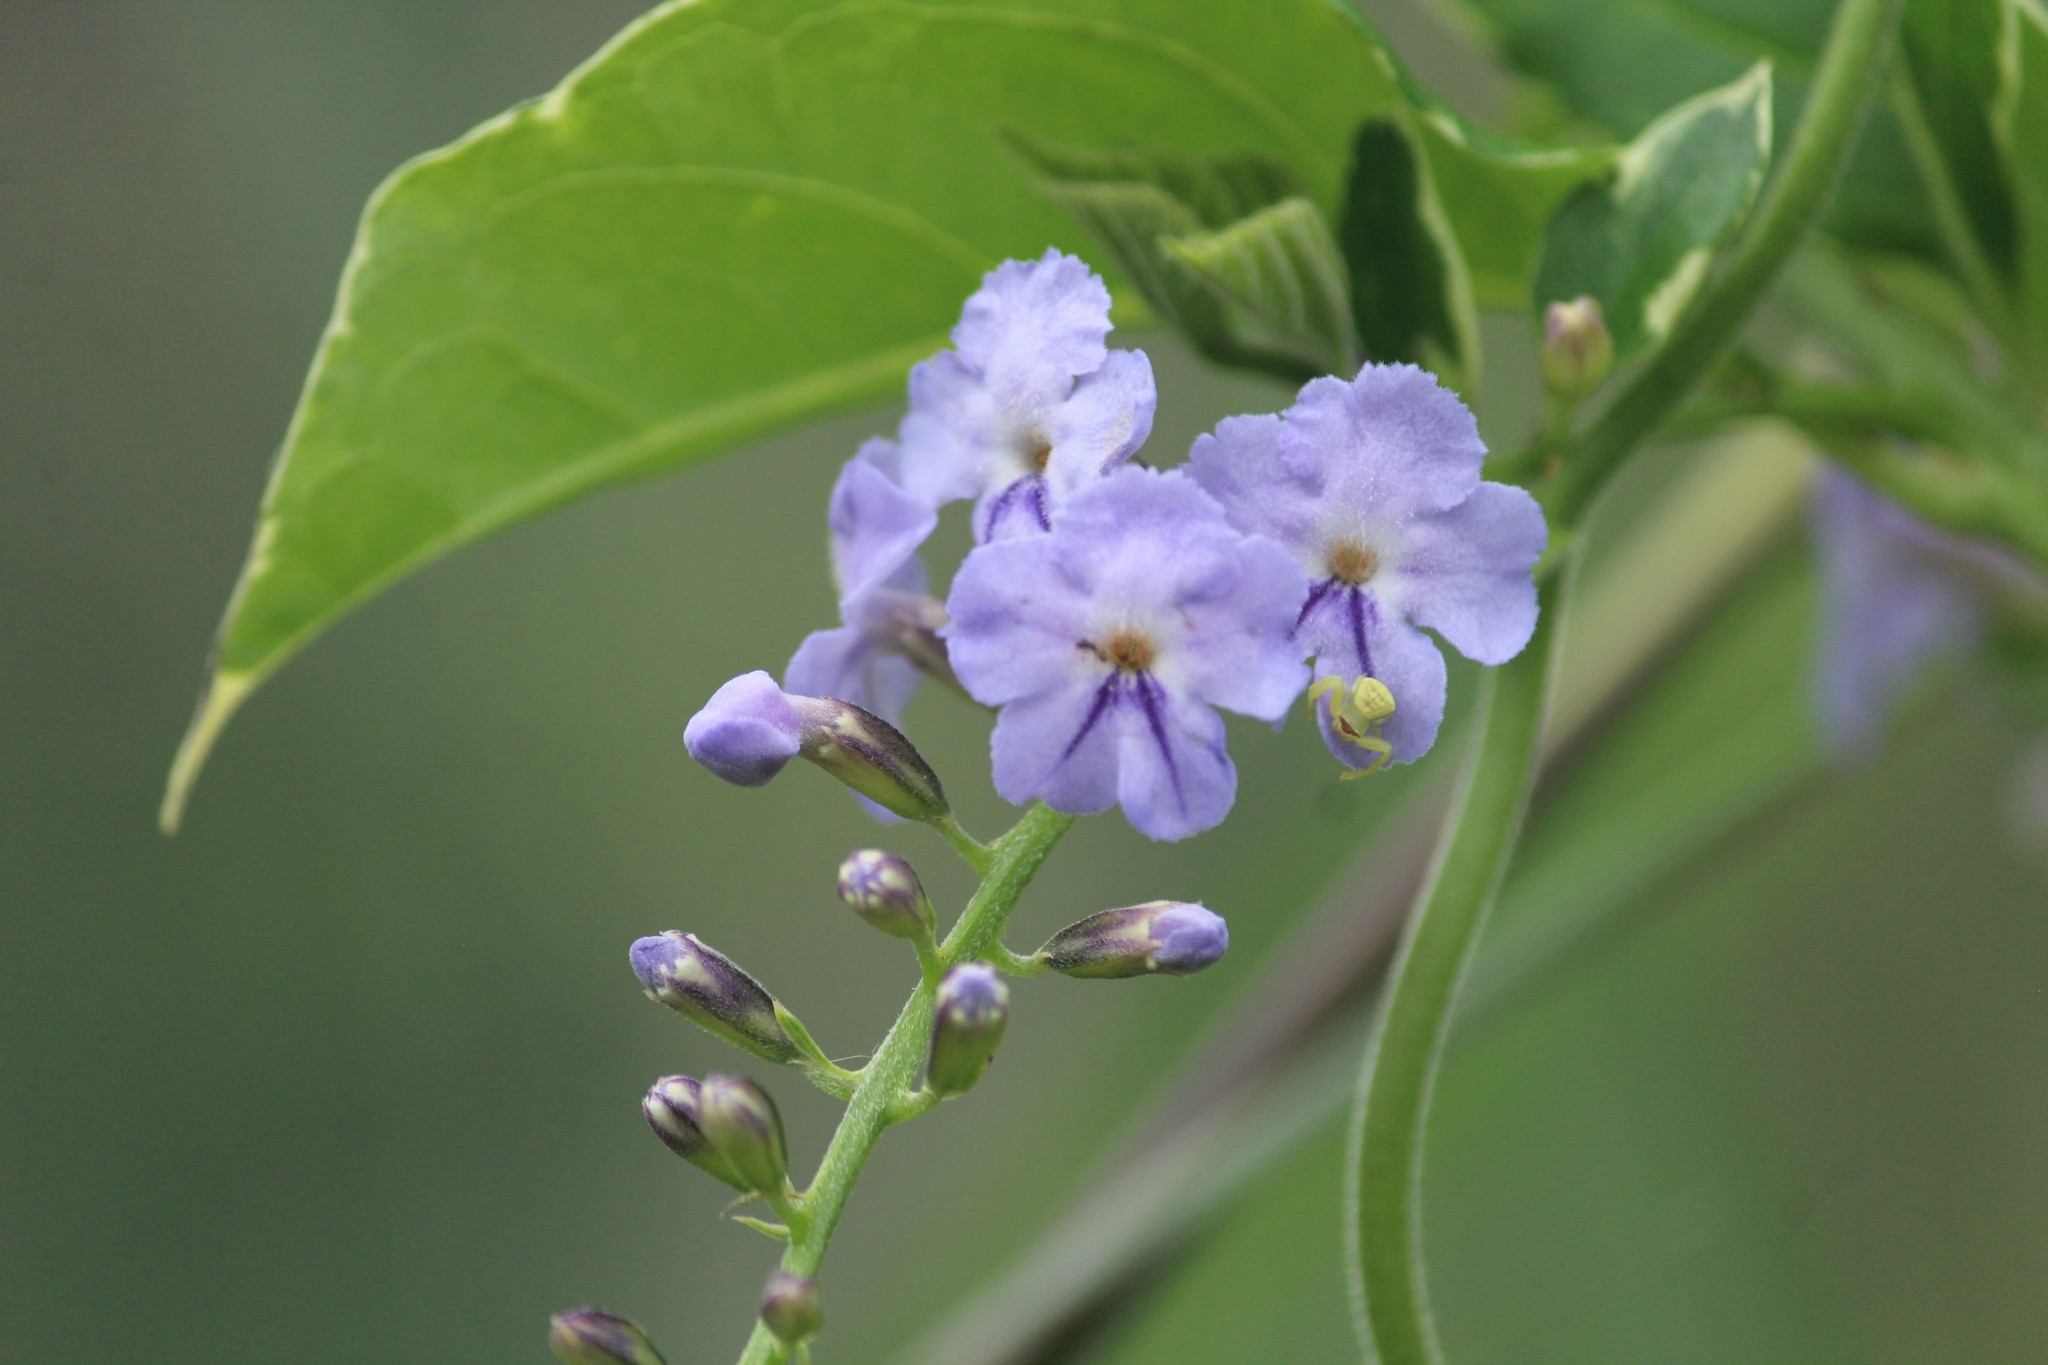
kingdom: Plantae
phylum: Tracheophyta
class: Magnoliopsida
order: Lamiales
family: Verbenaceae
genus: Duranta
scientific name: Duranta erecta
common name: Golden dewdrops
